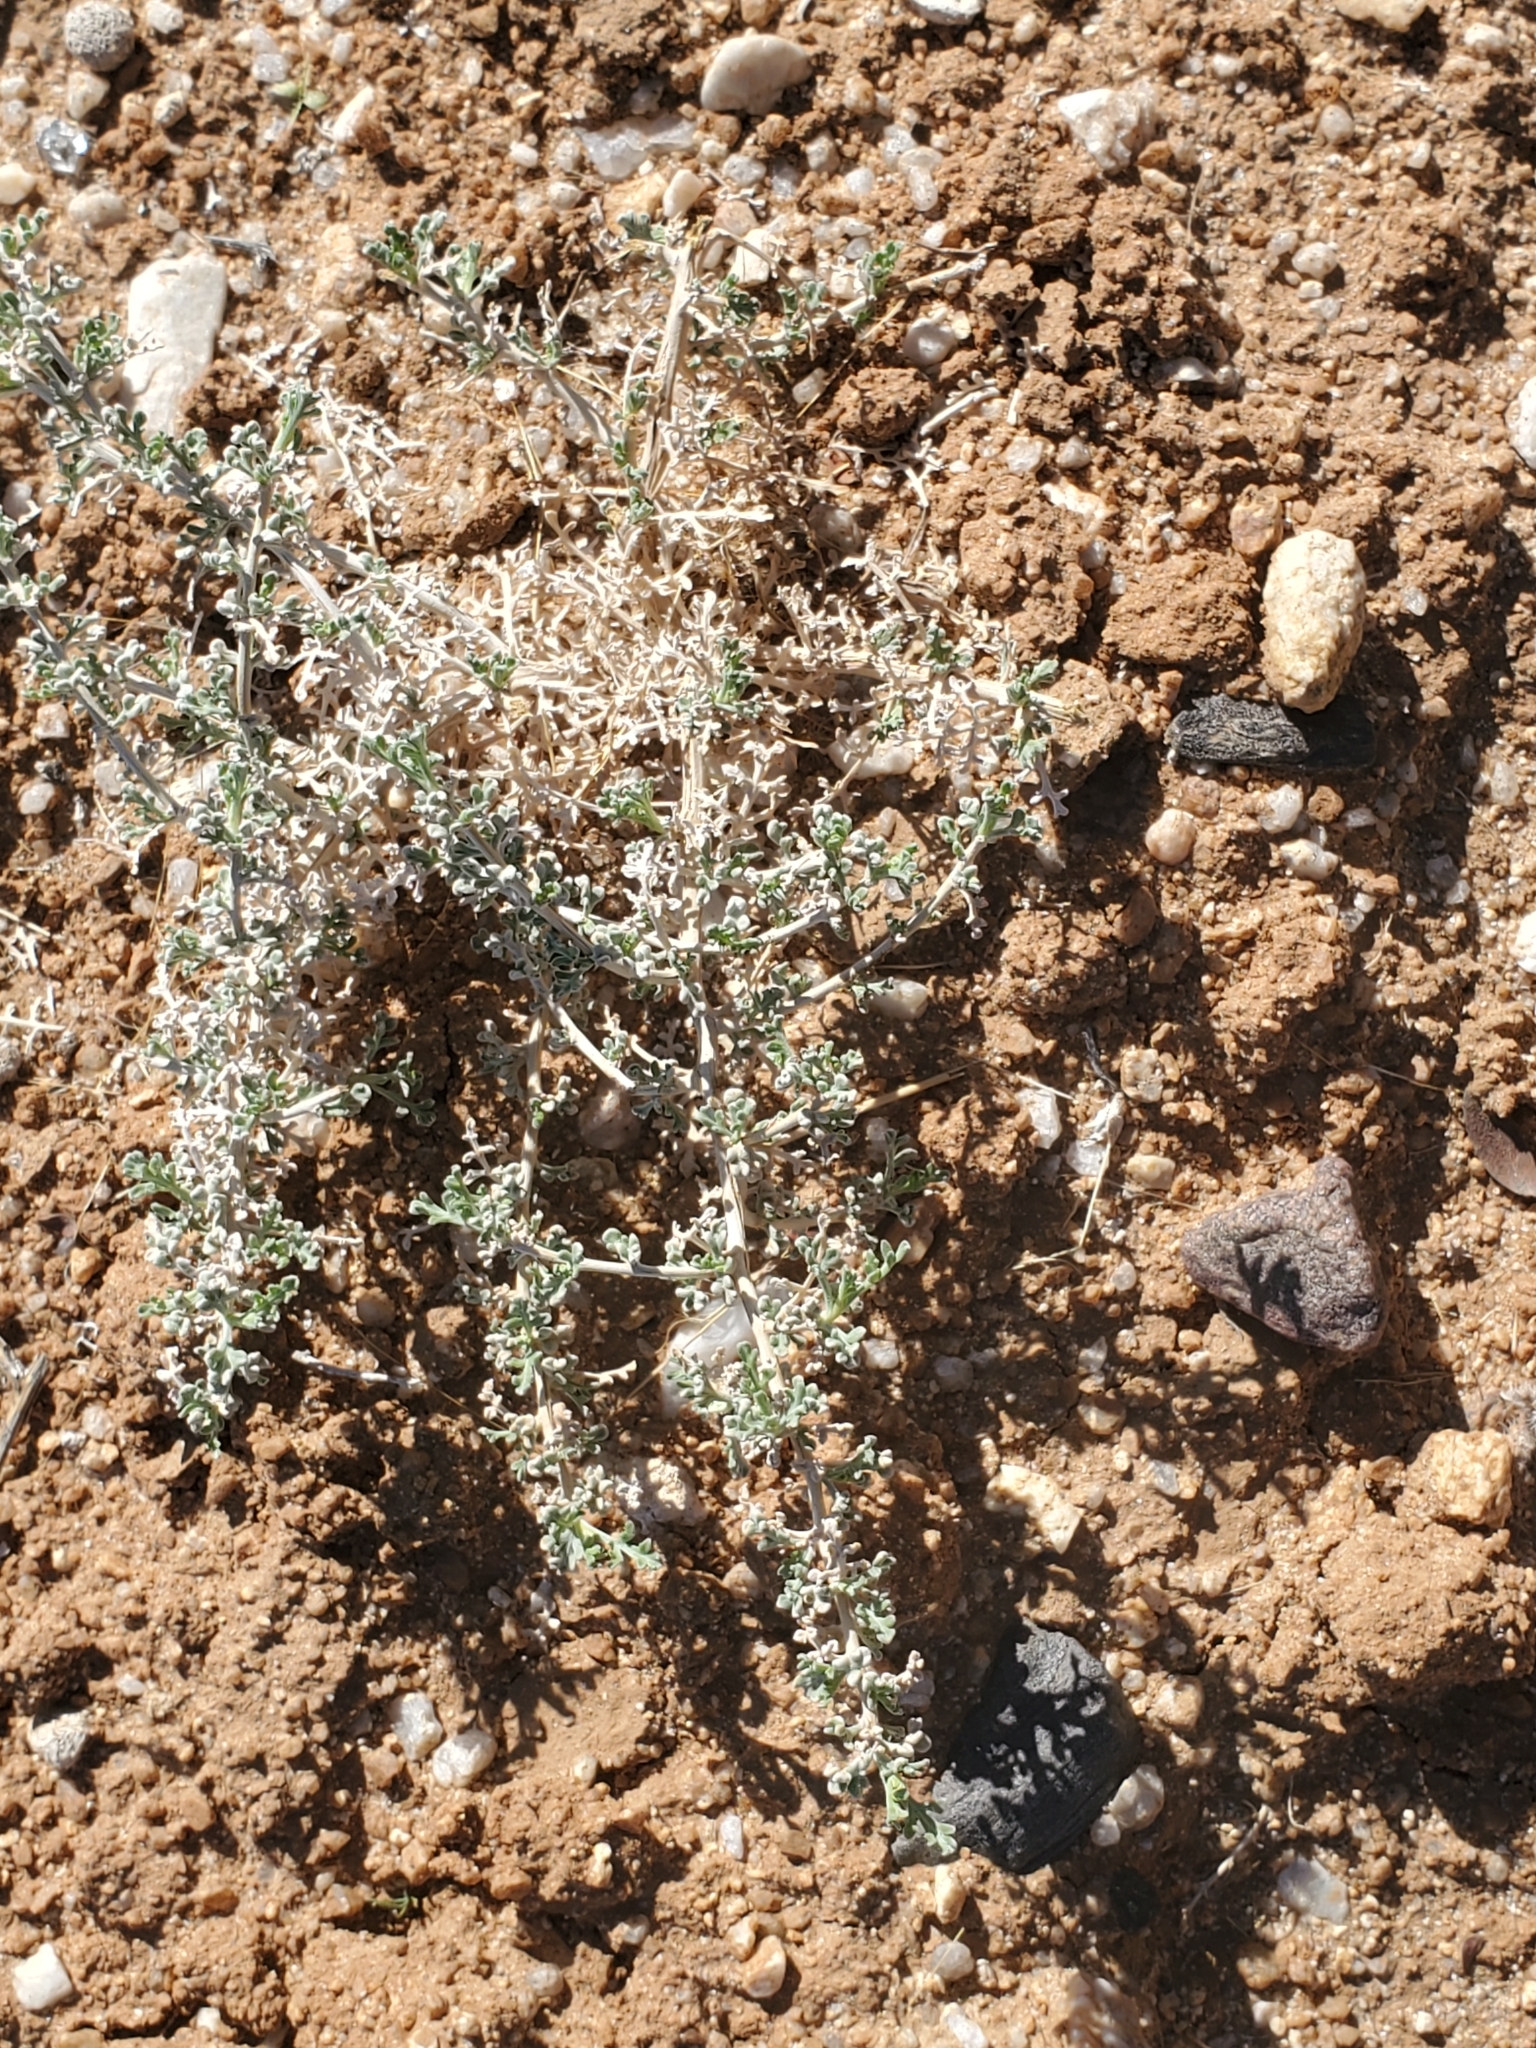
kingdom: Plantae
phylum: Tracheophyta
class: Magnoliopsida
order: Asterales
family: Asteraceae
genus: Ambrosia
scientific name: Ambrosia dumosa
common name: Bur-sage
